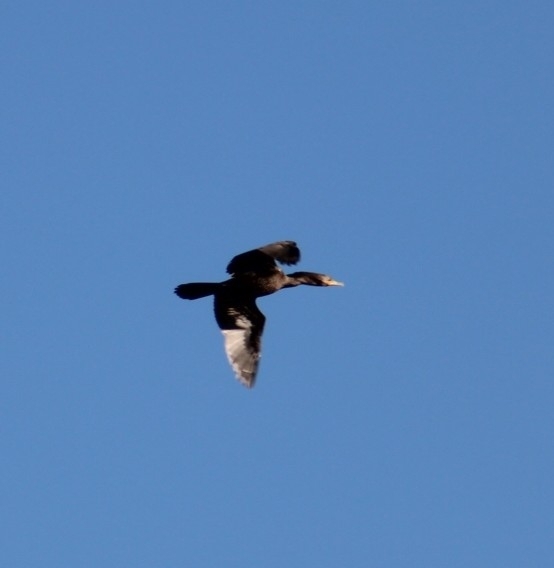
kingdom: Animalia
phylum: Chordata
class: Aves
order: Suliformes
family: Phalacrocoracidae
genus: Phalacrocorax
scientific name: Phalacrocorax auritus
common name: Double-crested cormorant
